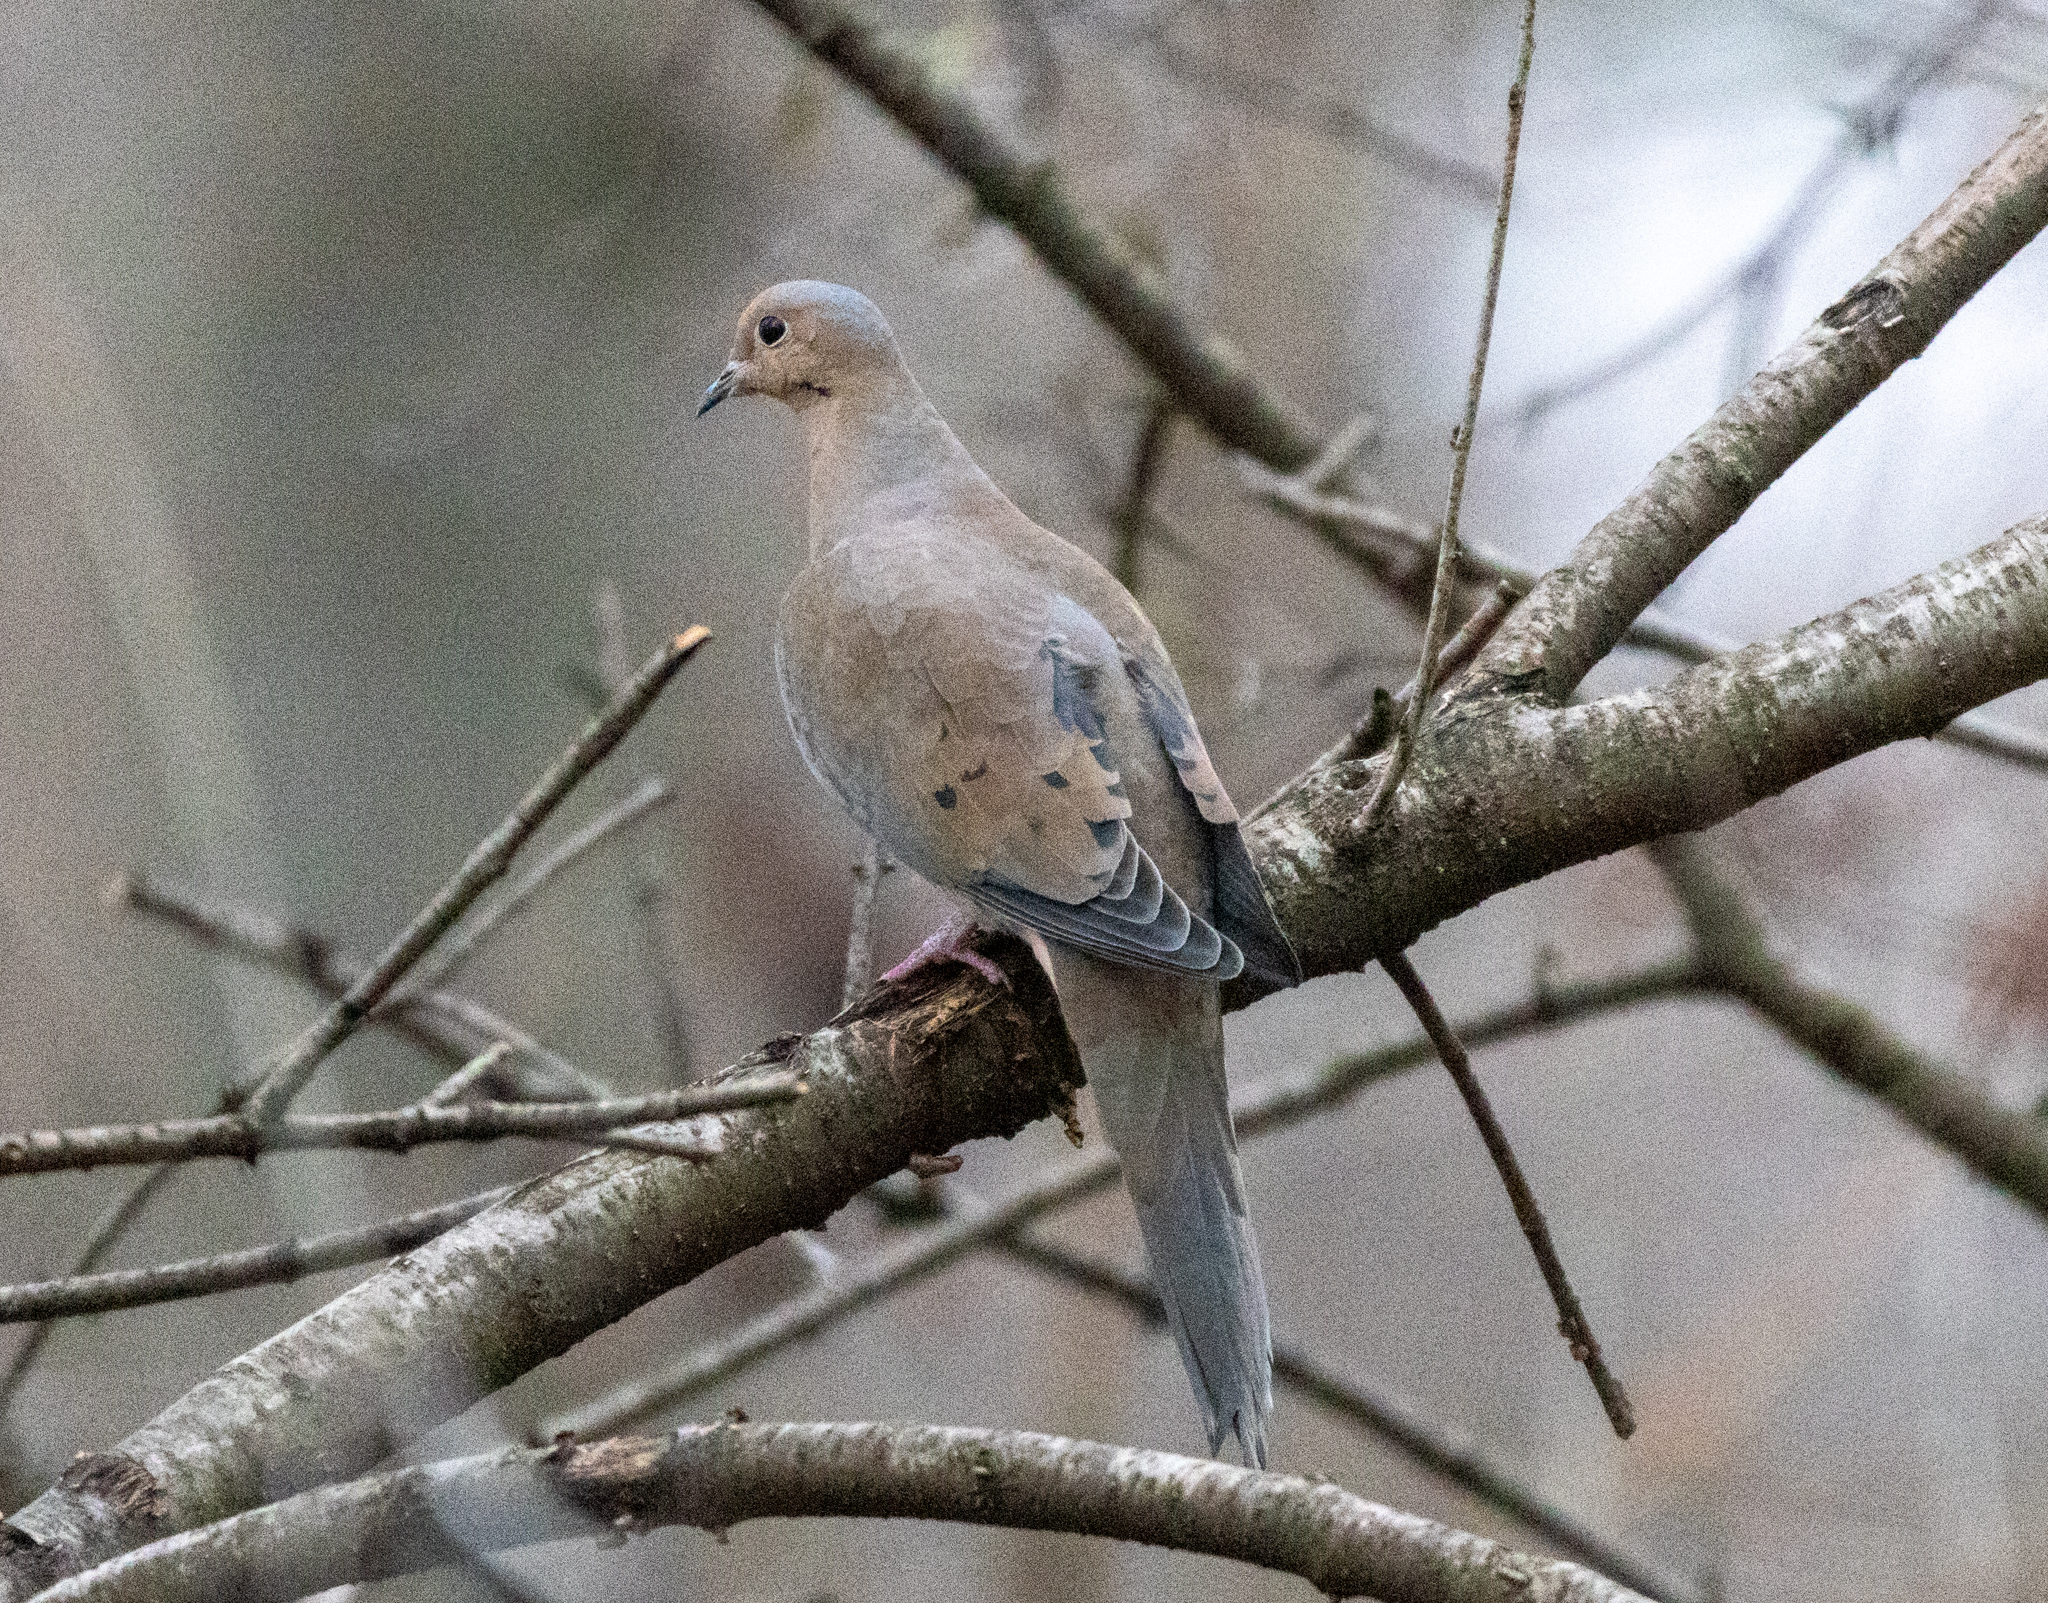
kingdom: Animalia
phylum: Chordata
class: Aves
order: Columbiformes
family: Columbidae
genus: Zenaida
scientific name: Zenaida macroura
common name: Mourning dove
